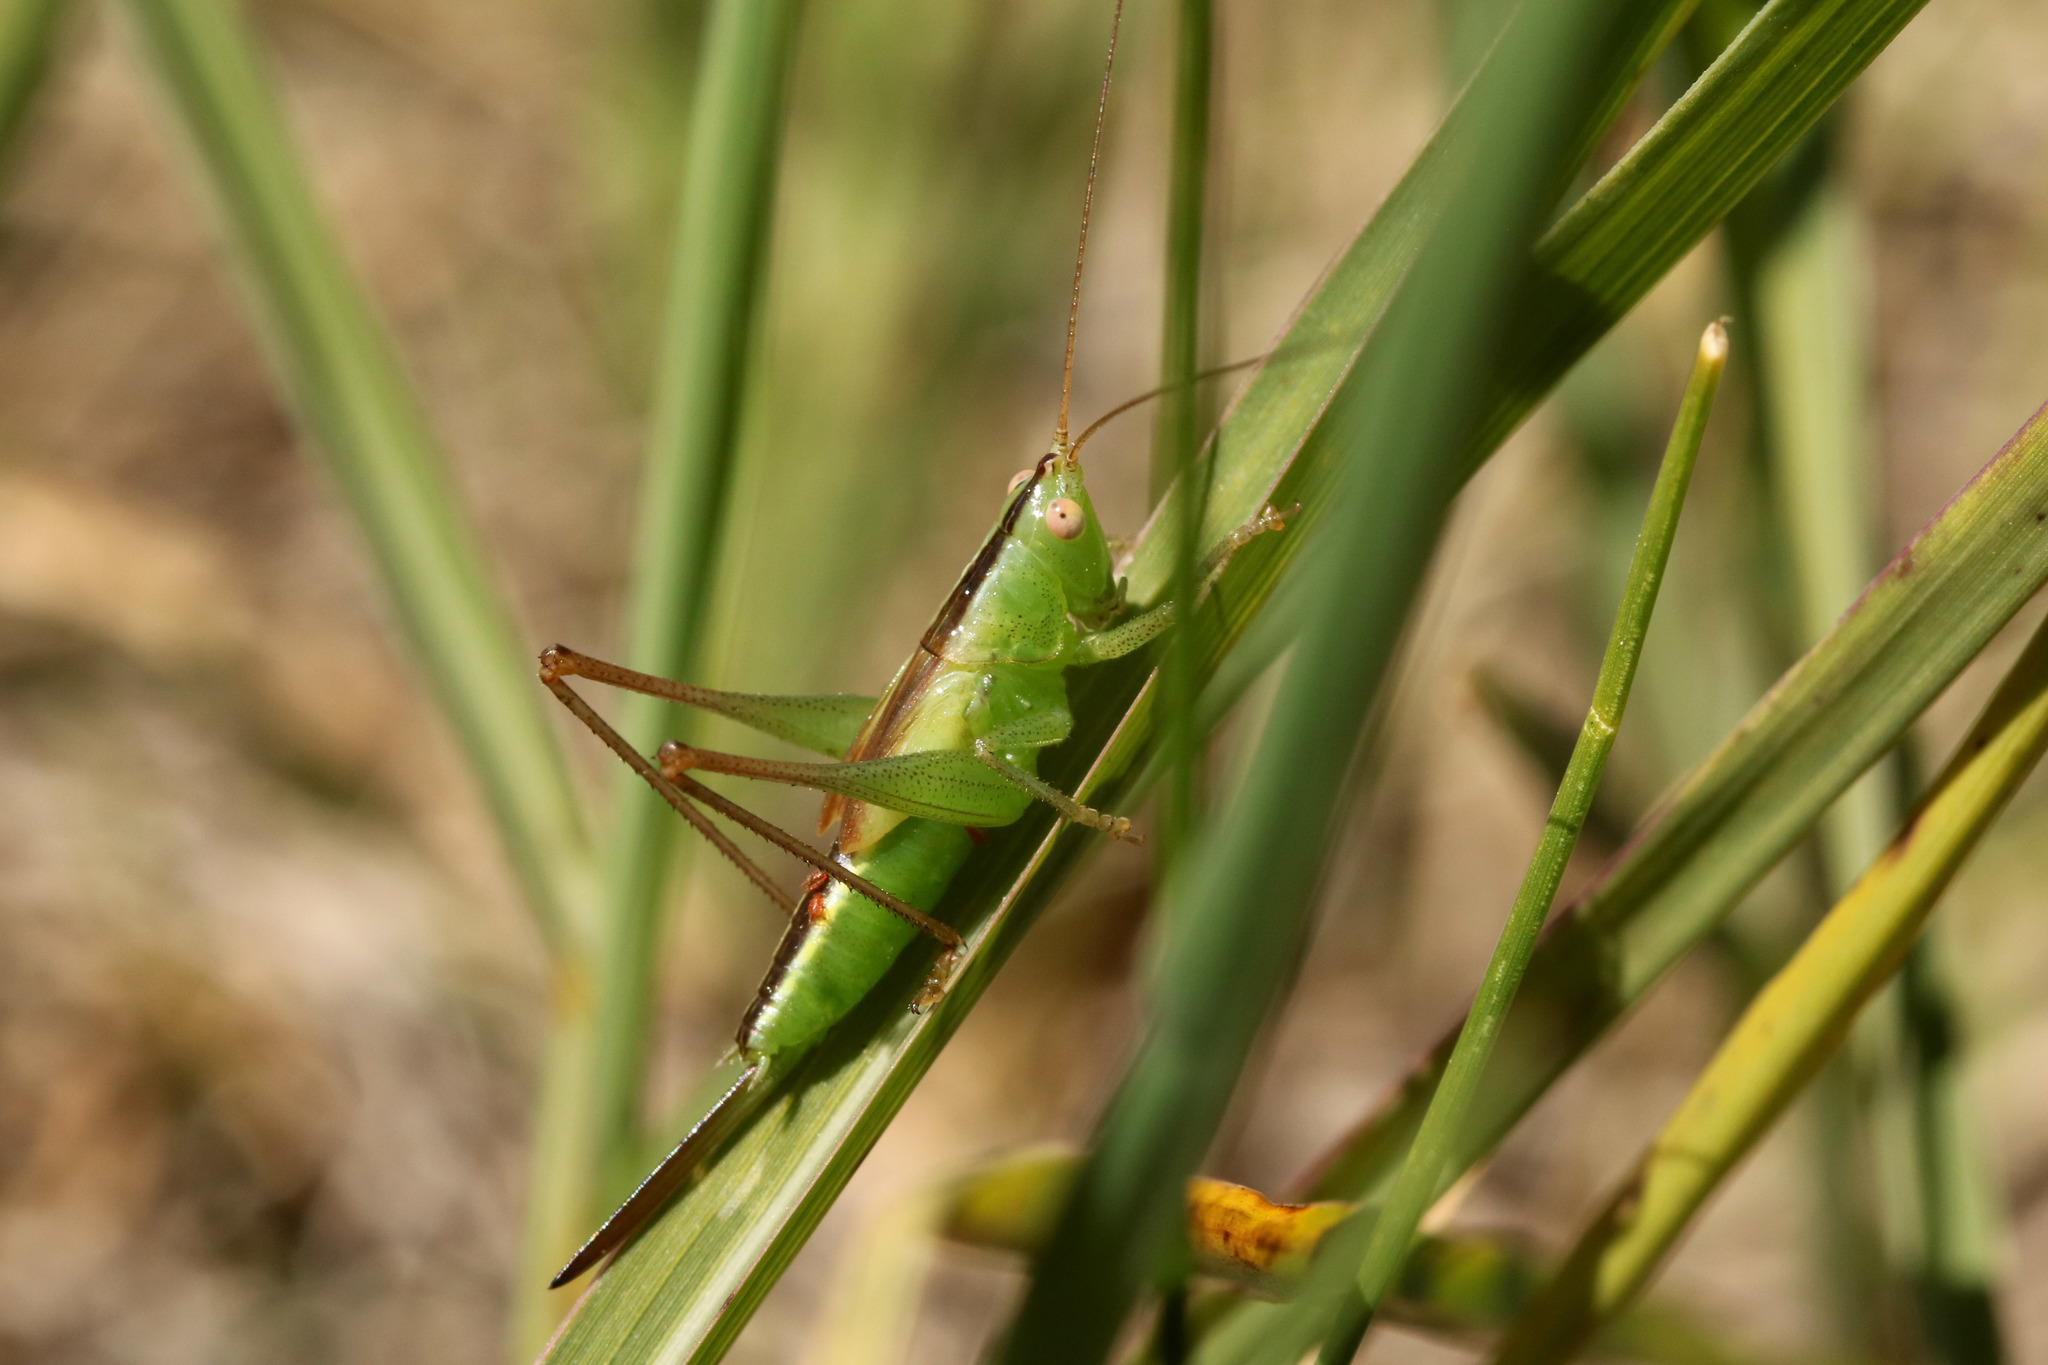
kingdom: Animalia
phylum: Arthropoda
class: Insecta
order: Orthoptera
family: Tettigoniidae
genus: Conocephalus
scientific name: Conocephalus longipes
